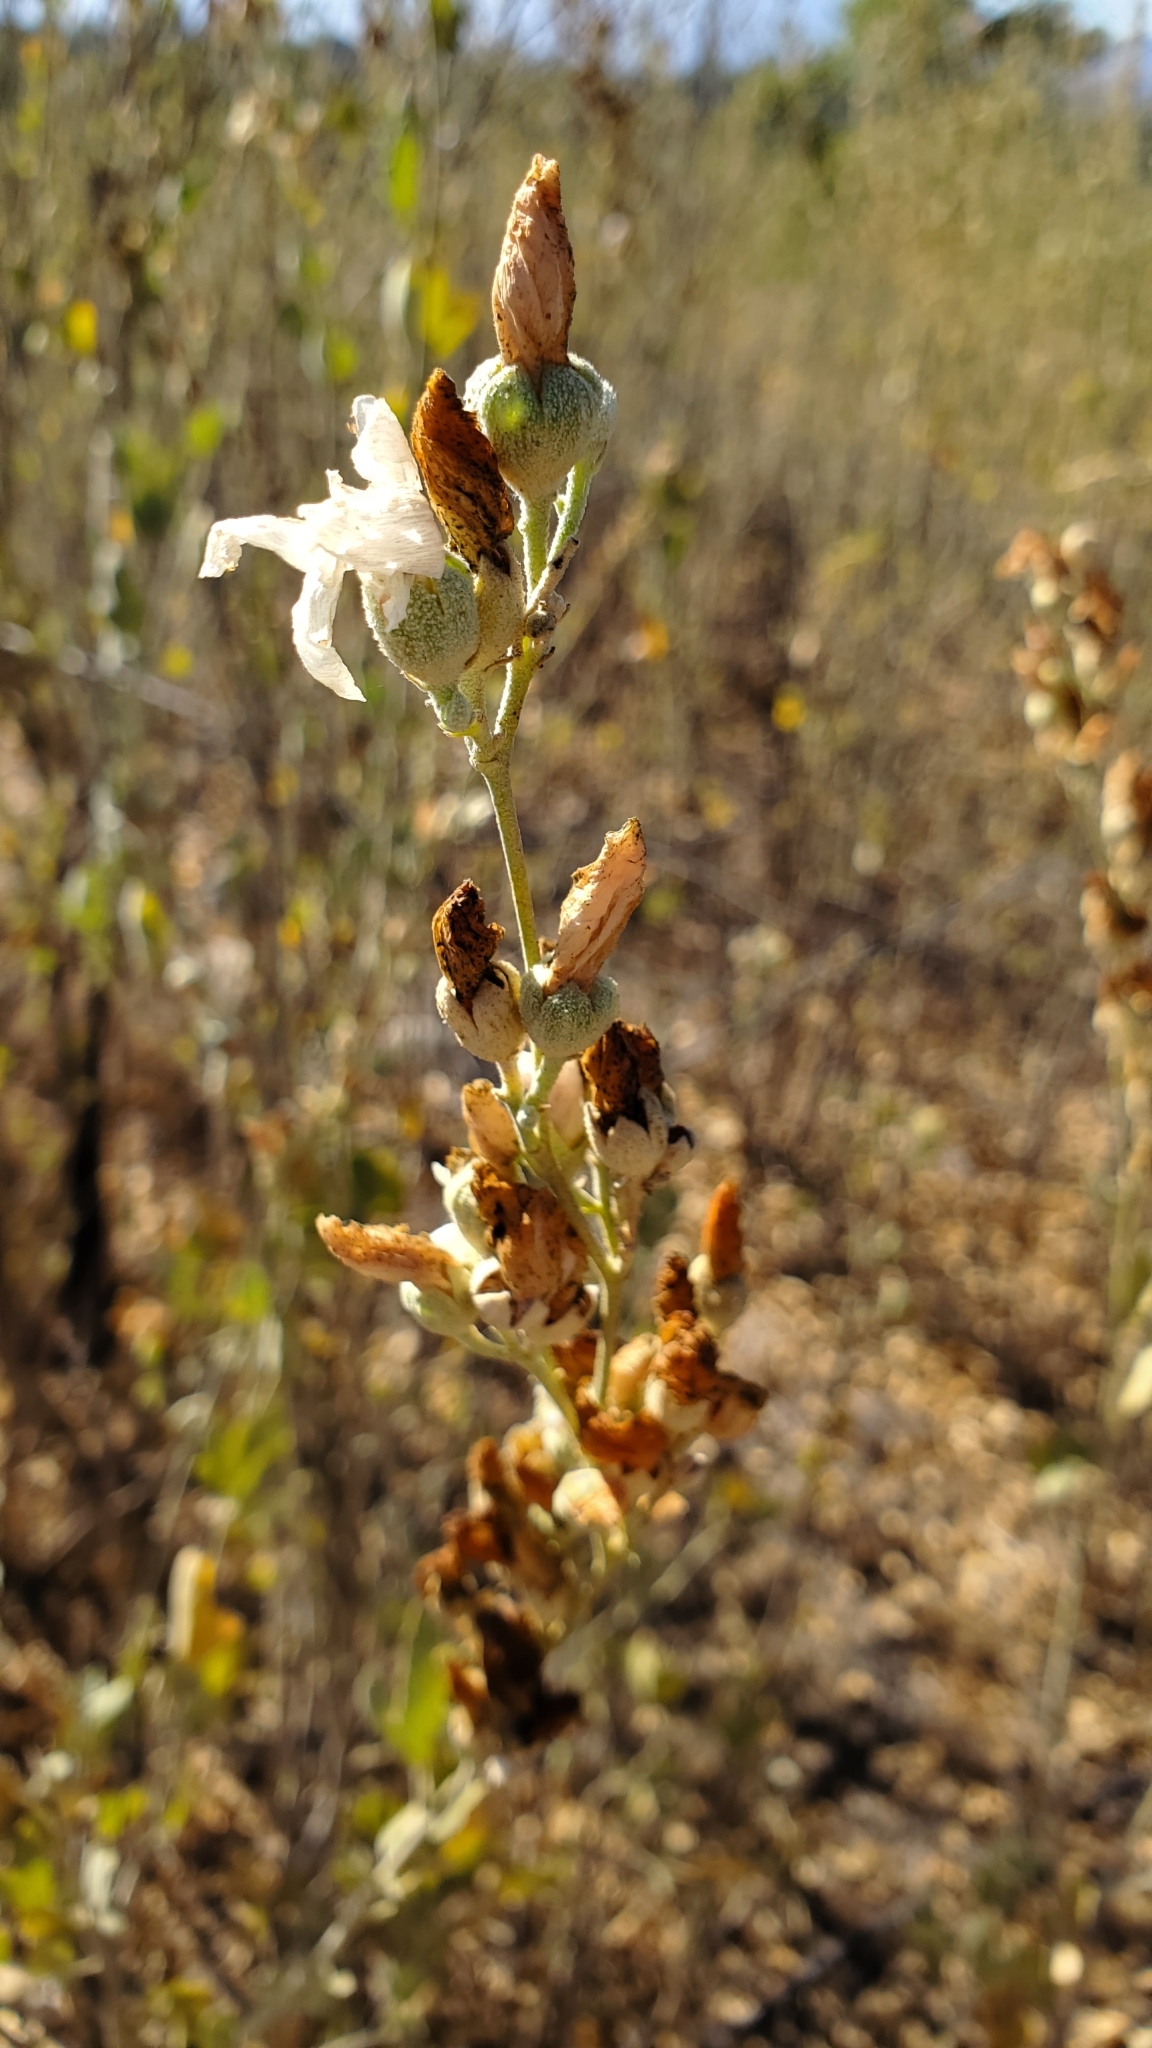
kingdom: Plantae
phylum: Tracheophyta
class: Magnoliopsida
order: Malvales
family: Malvaceae
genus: Malacothamnus
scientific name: Malacothamnus fasciculatus
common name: Sant cruz island bush-mallow
